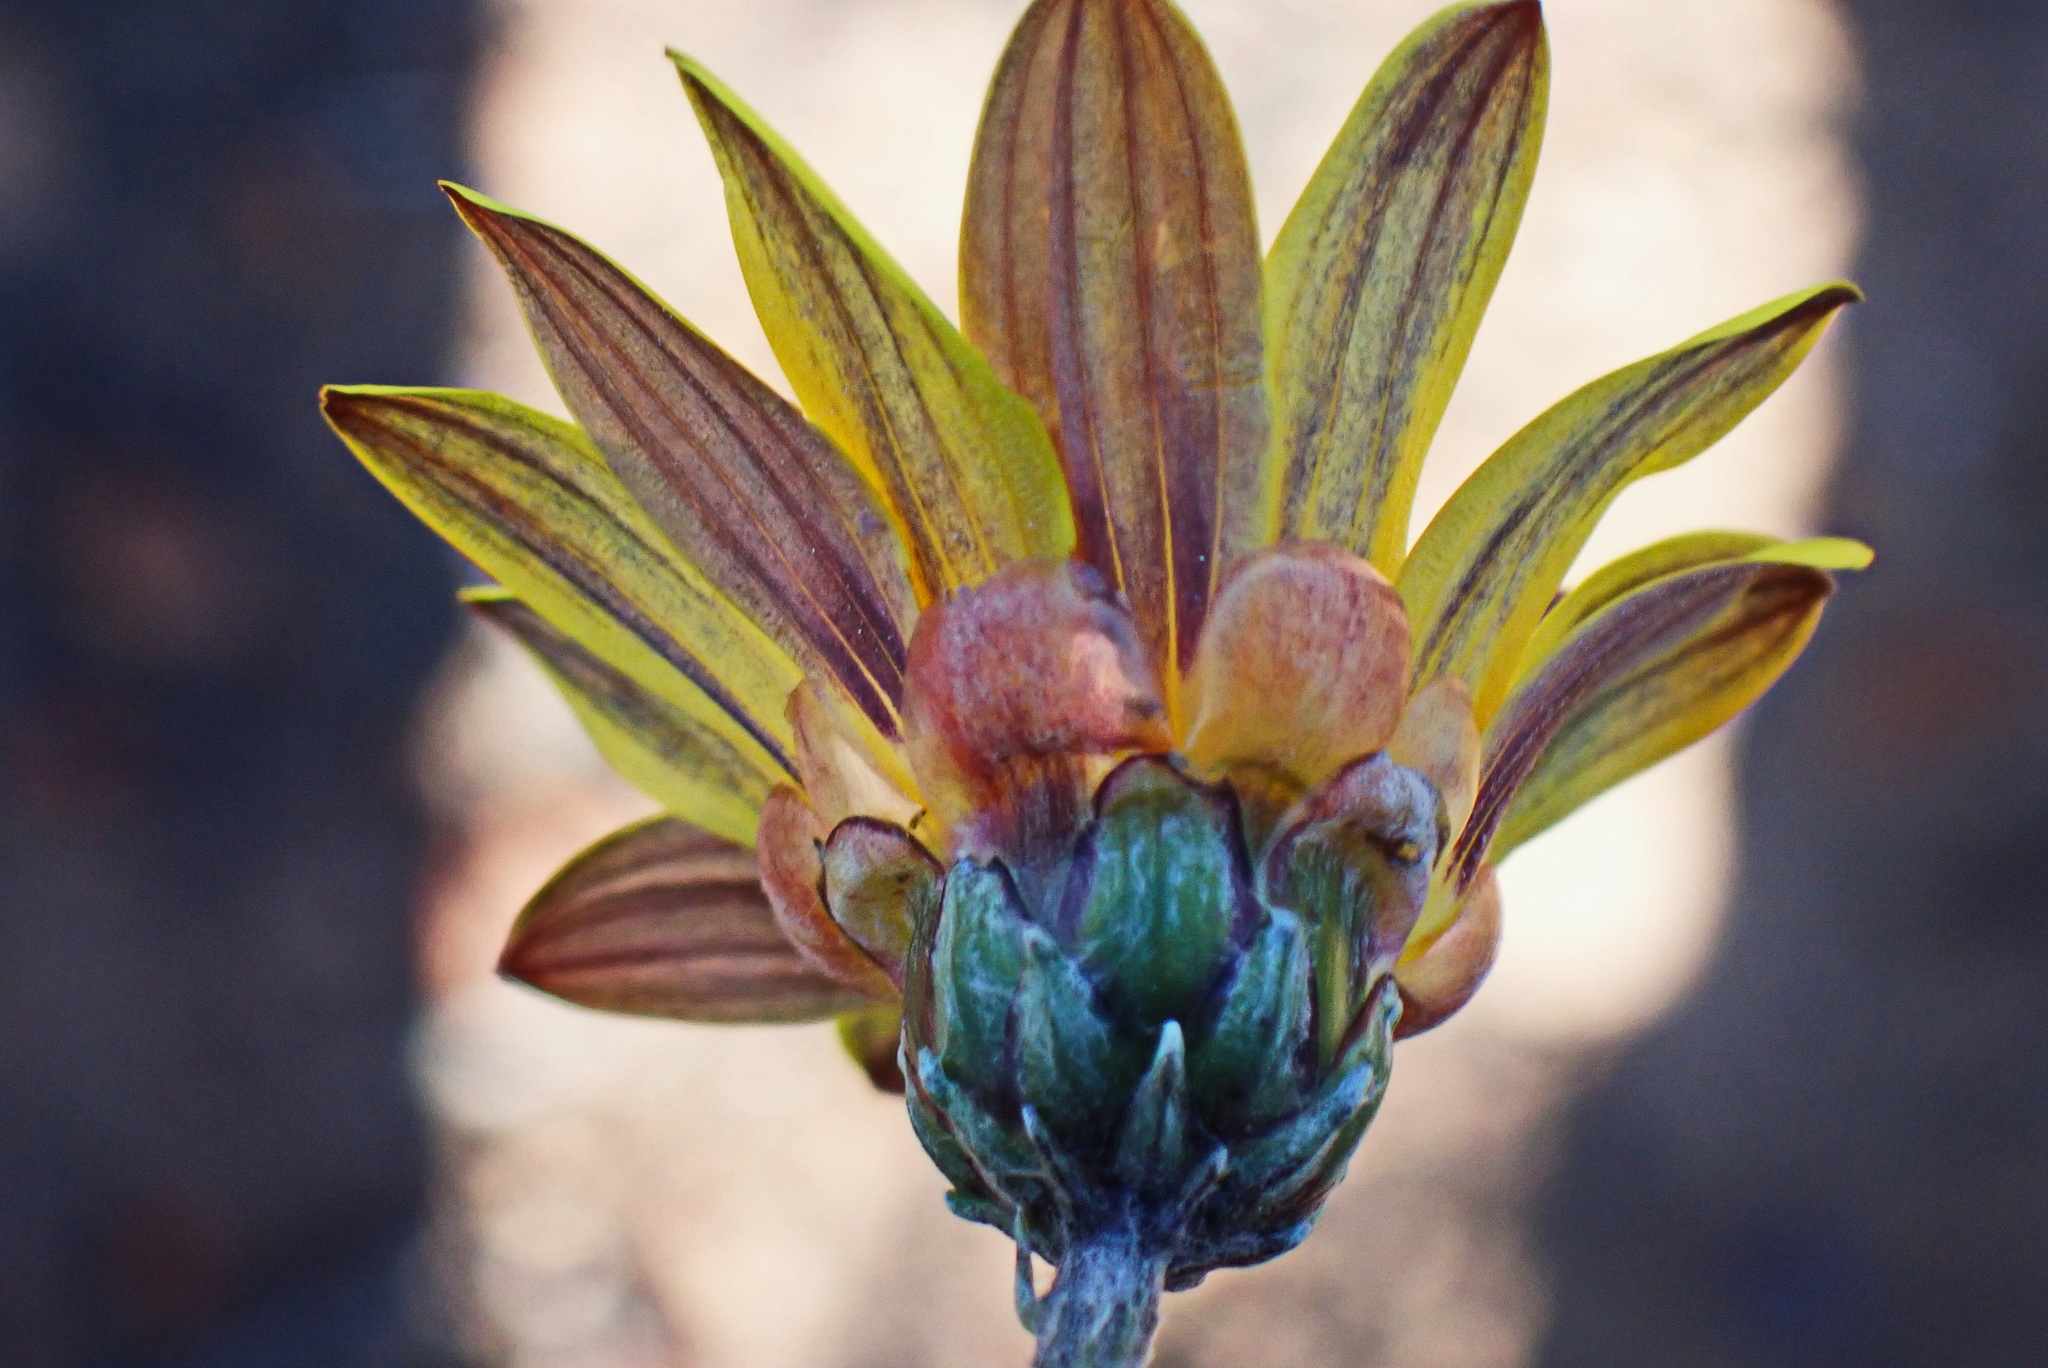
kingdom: Plantae
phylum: Tracheophyta
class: Magnoliopsida
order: Asterales
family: Asteraceae
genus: Arctotis
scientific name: Arctotis lanceolata
